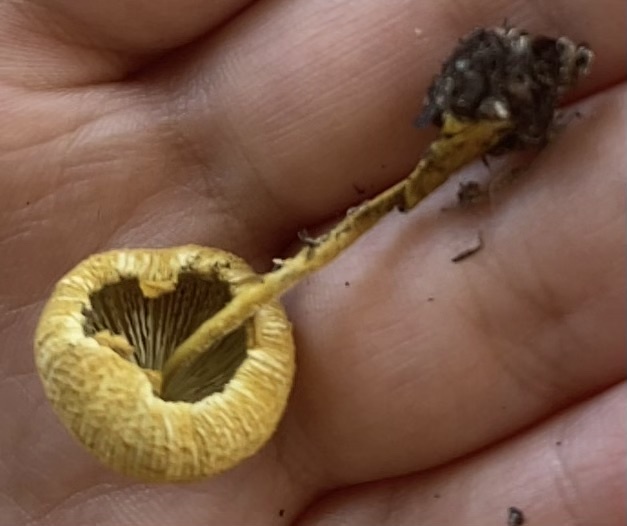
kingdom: Fungi
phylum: Basidiomycota
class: Agaricomycetes
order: Agaricales
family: Agaricaceae
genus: Leucocoprinus
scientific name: Leucocoprinus birnbaumii
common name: Plantpot dapperling
